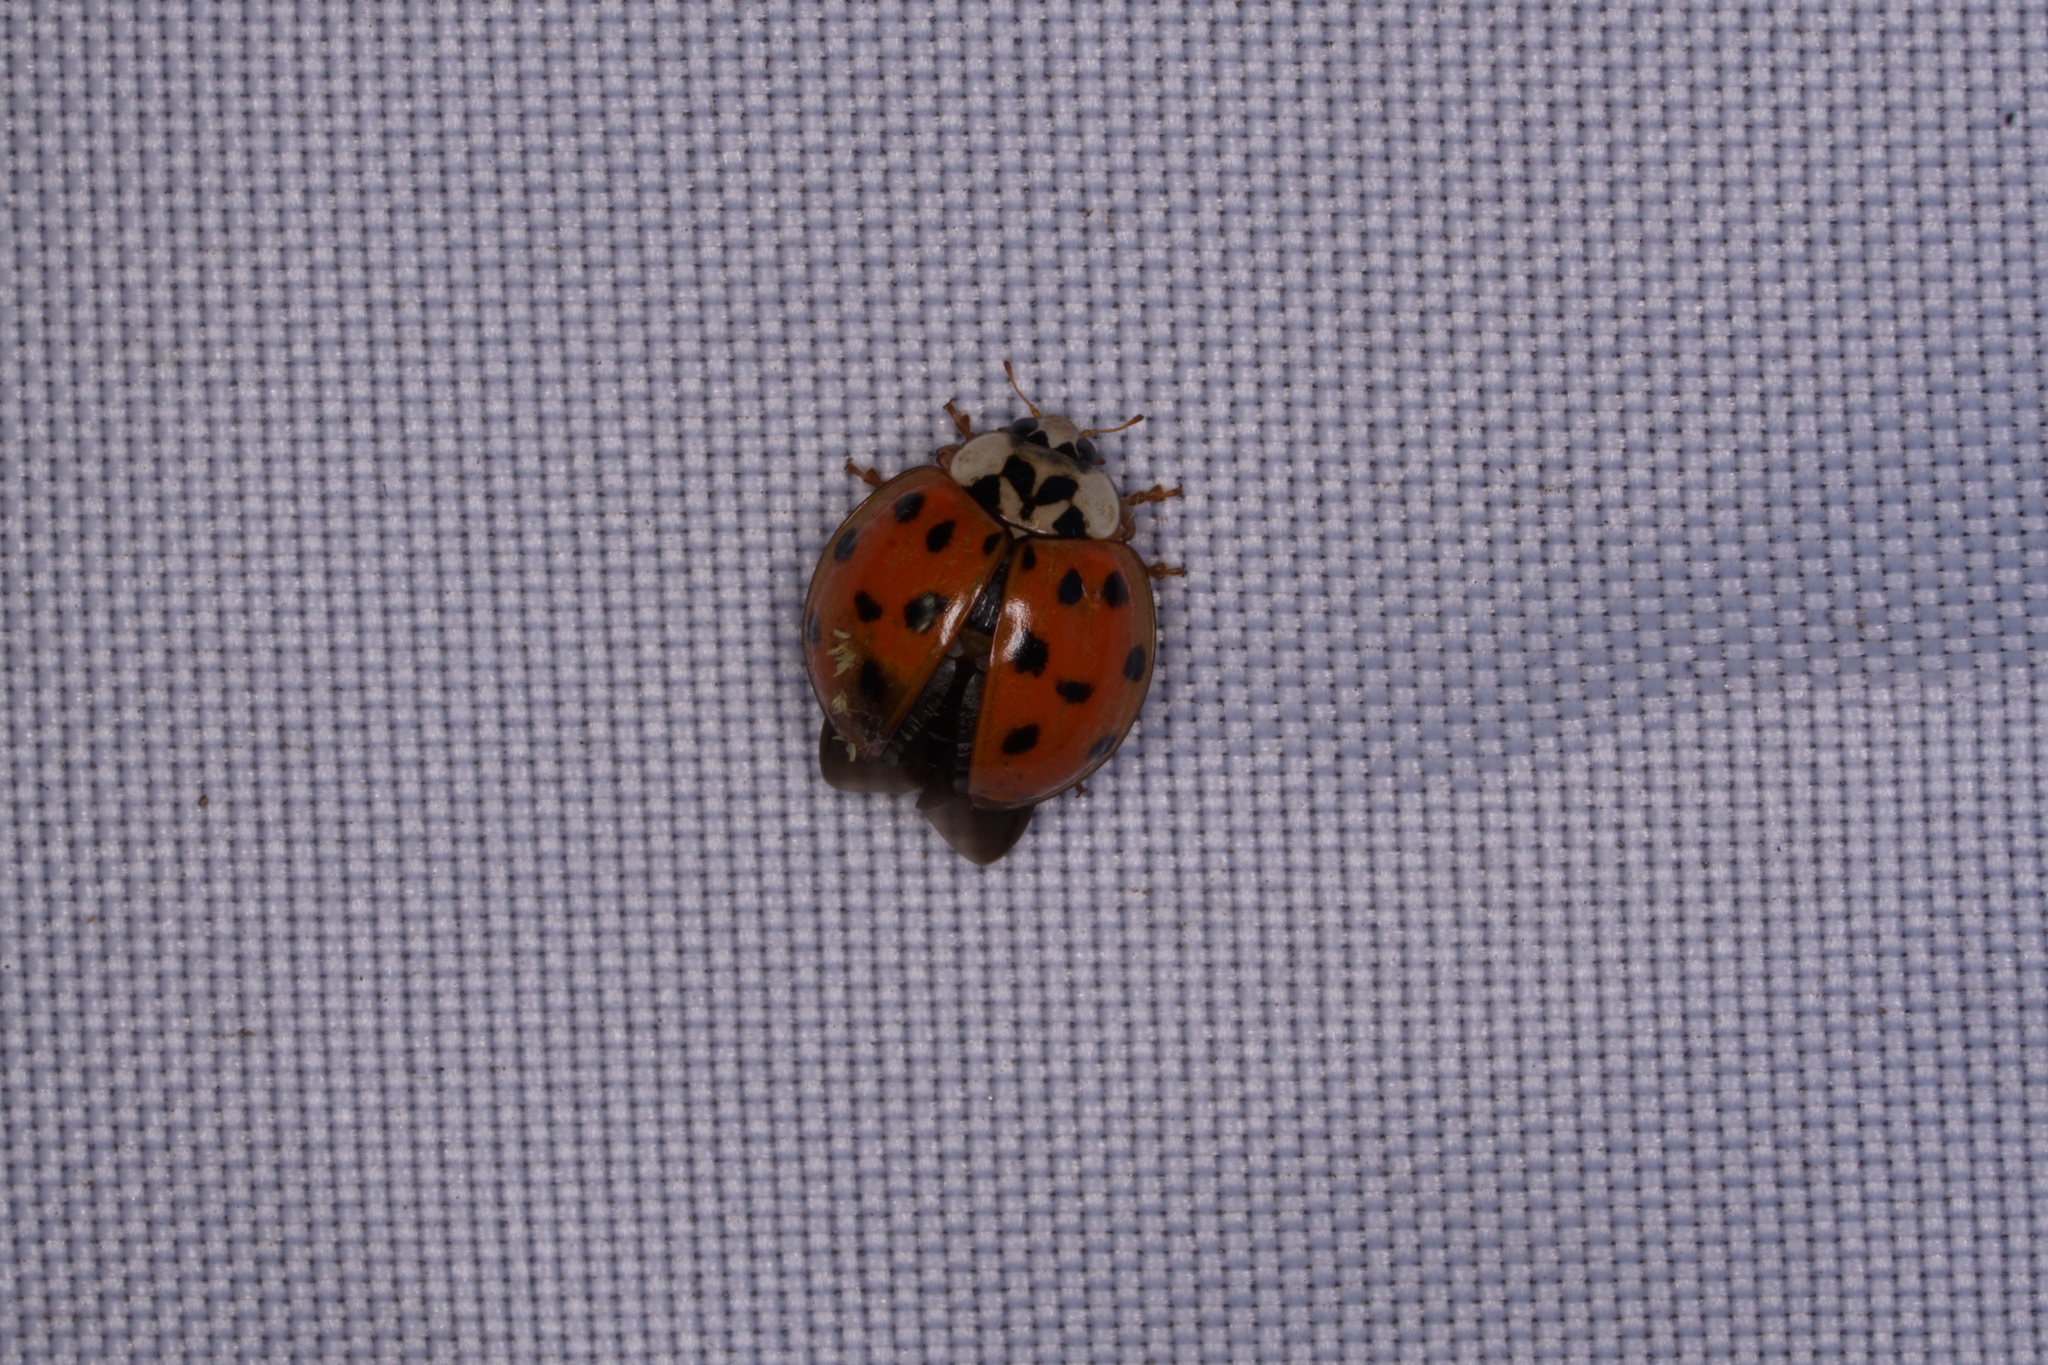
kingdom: Animalia
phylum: Arthropoda
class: Insecta
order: Coleoptera
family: Coccinellidae
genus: Harmonia
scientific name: Harmonia axyridis
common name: Harlequin ladybird
